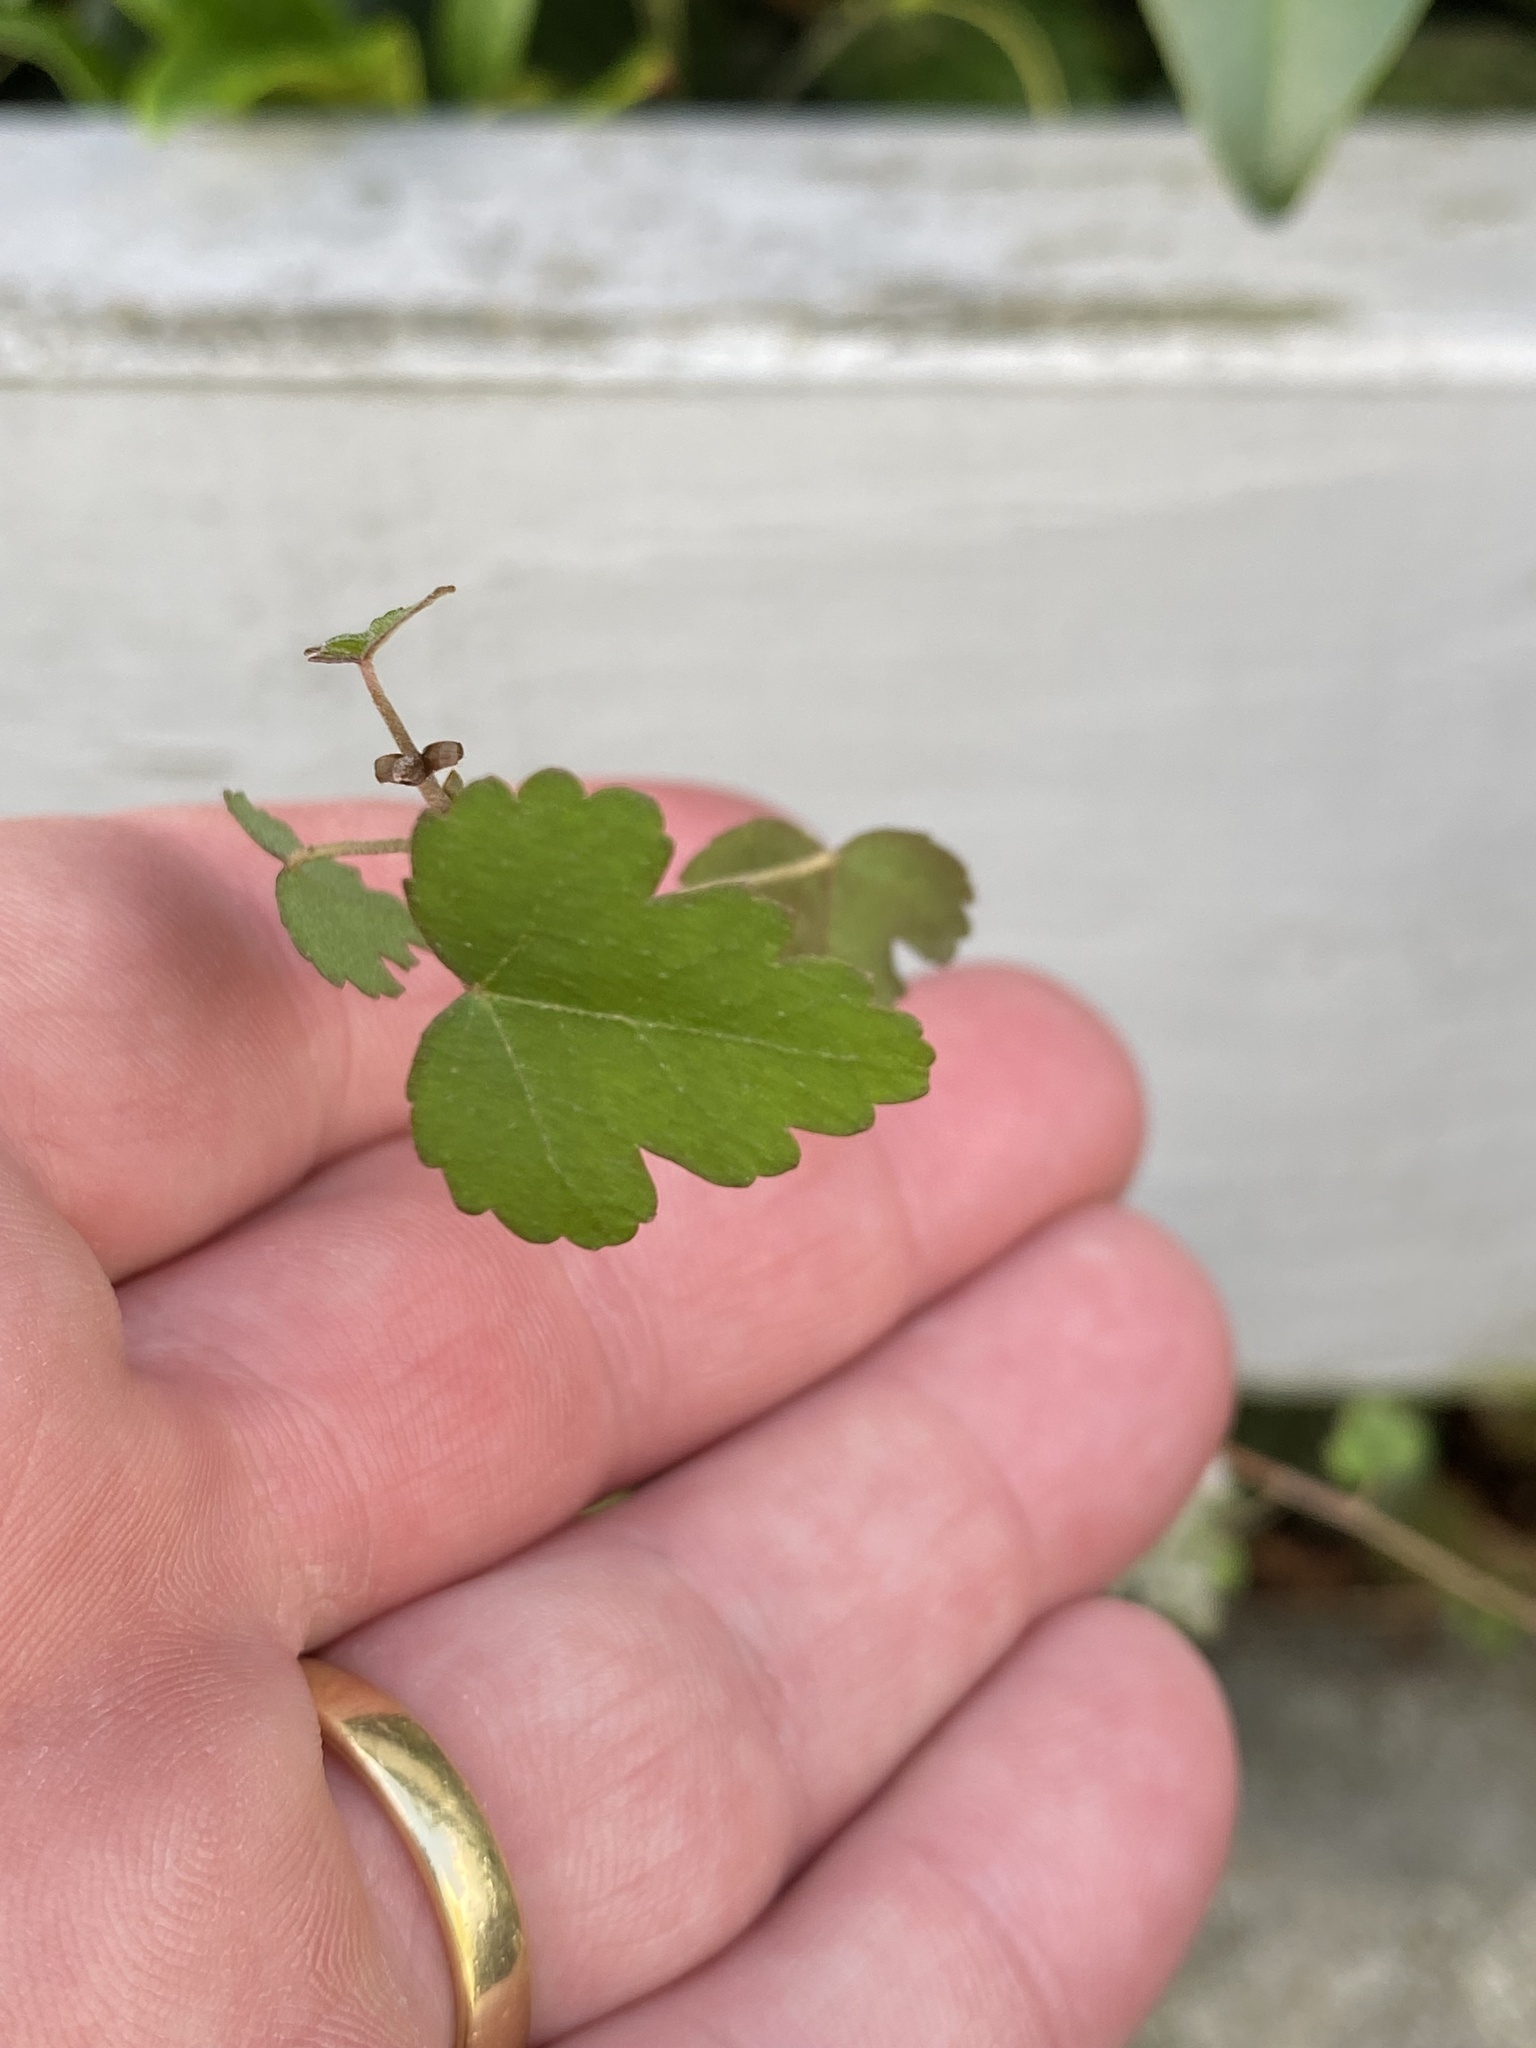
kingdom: Plantae
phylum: Tracheophyta
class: Magnoliopsida
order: Malvales
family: Malvaceae
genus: Plagianthus
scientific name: Plagianthus regius
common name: Manatu
